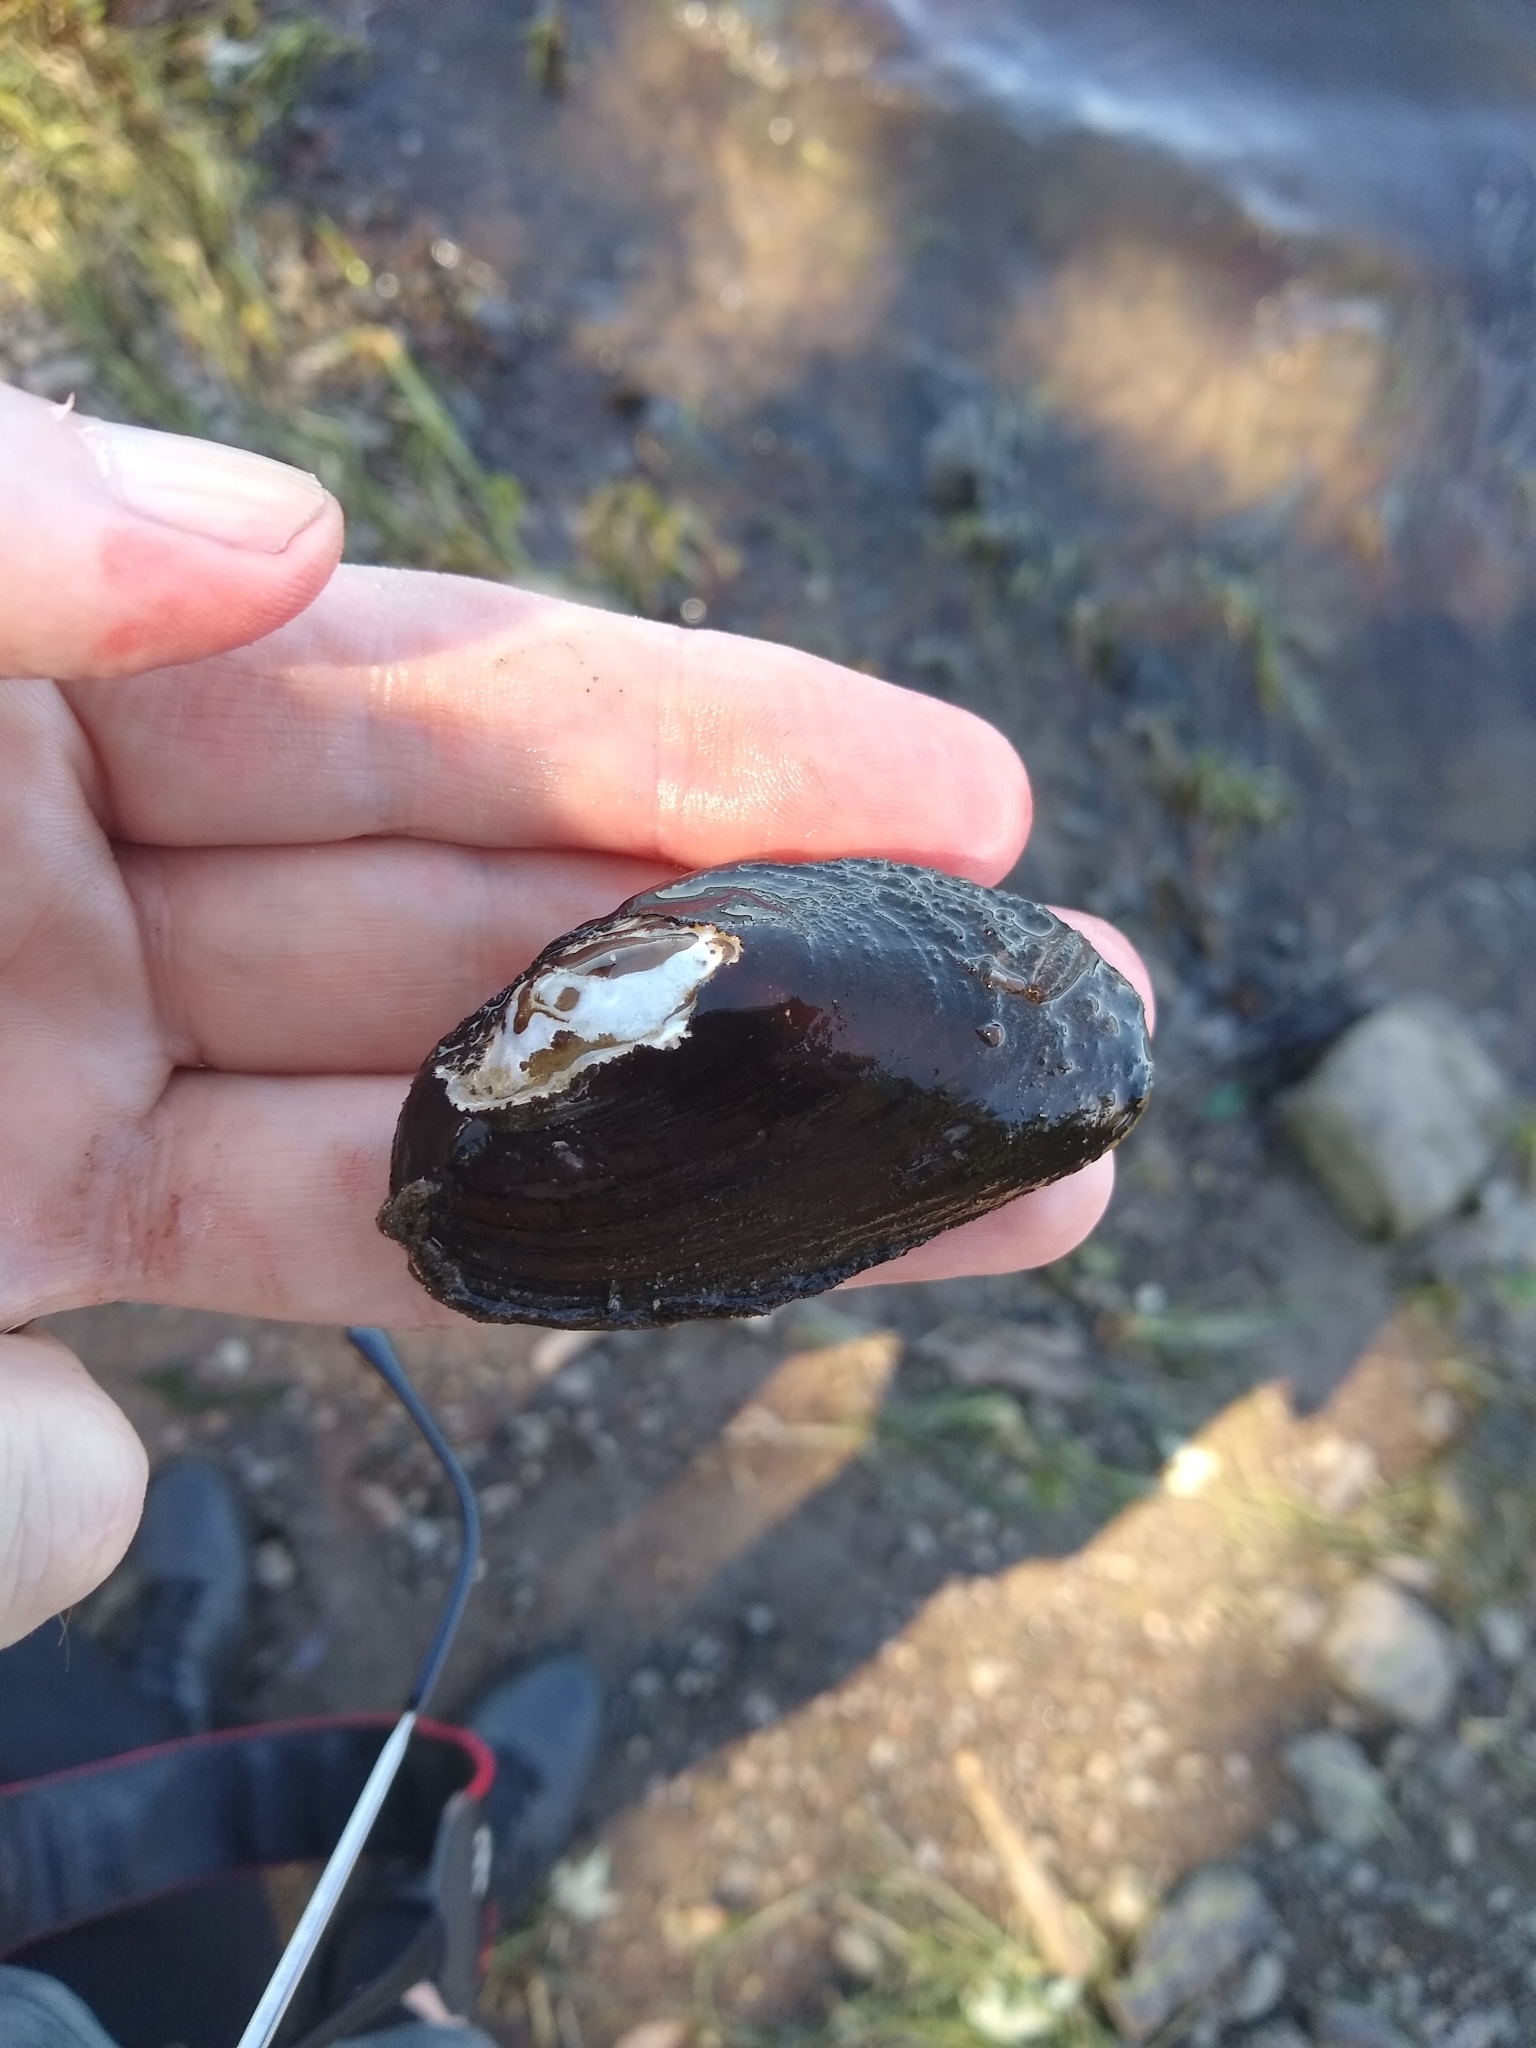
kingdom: Animalia
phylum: Mollusca
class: Bivalvia
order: Unionida
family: Unionidae
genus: Elliptio
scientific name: Elliptio complanata
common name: Eastern elliptio
